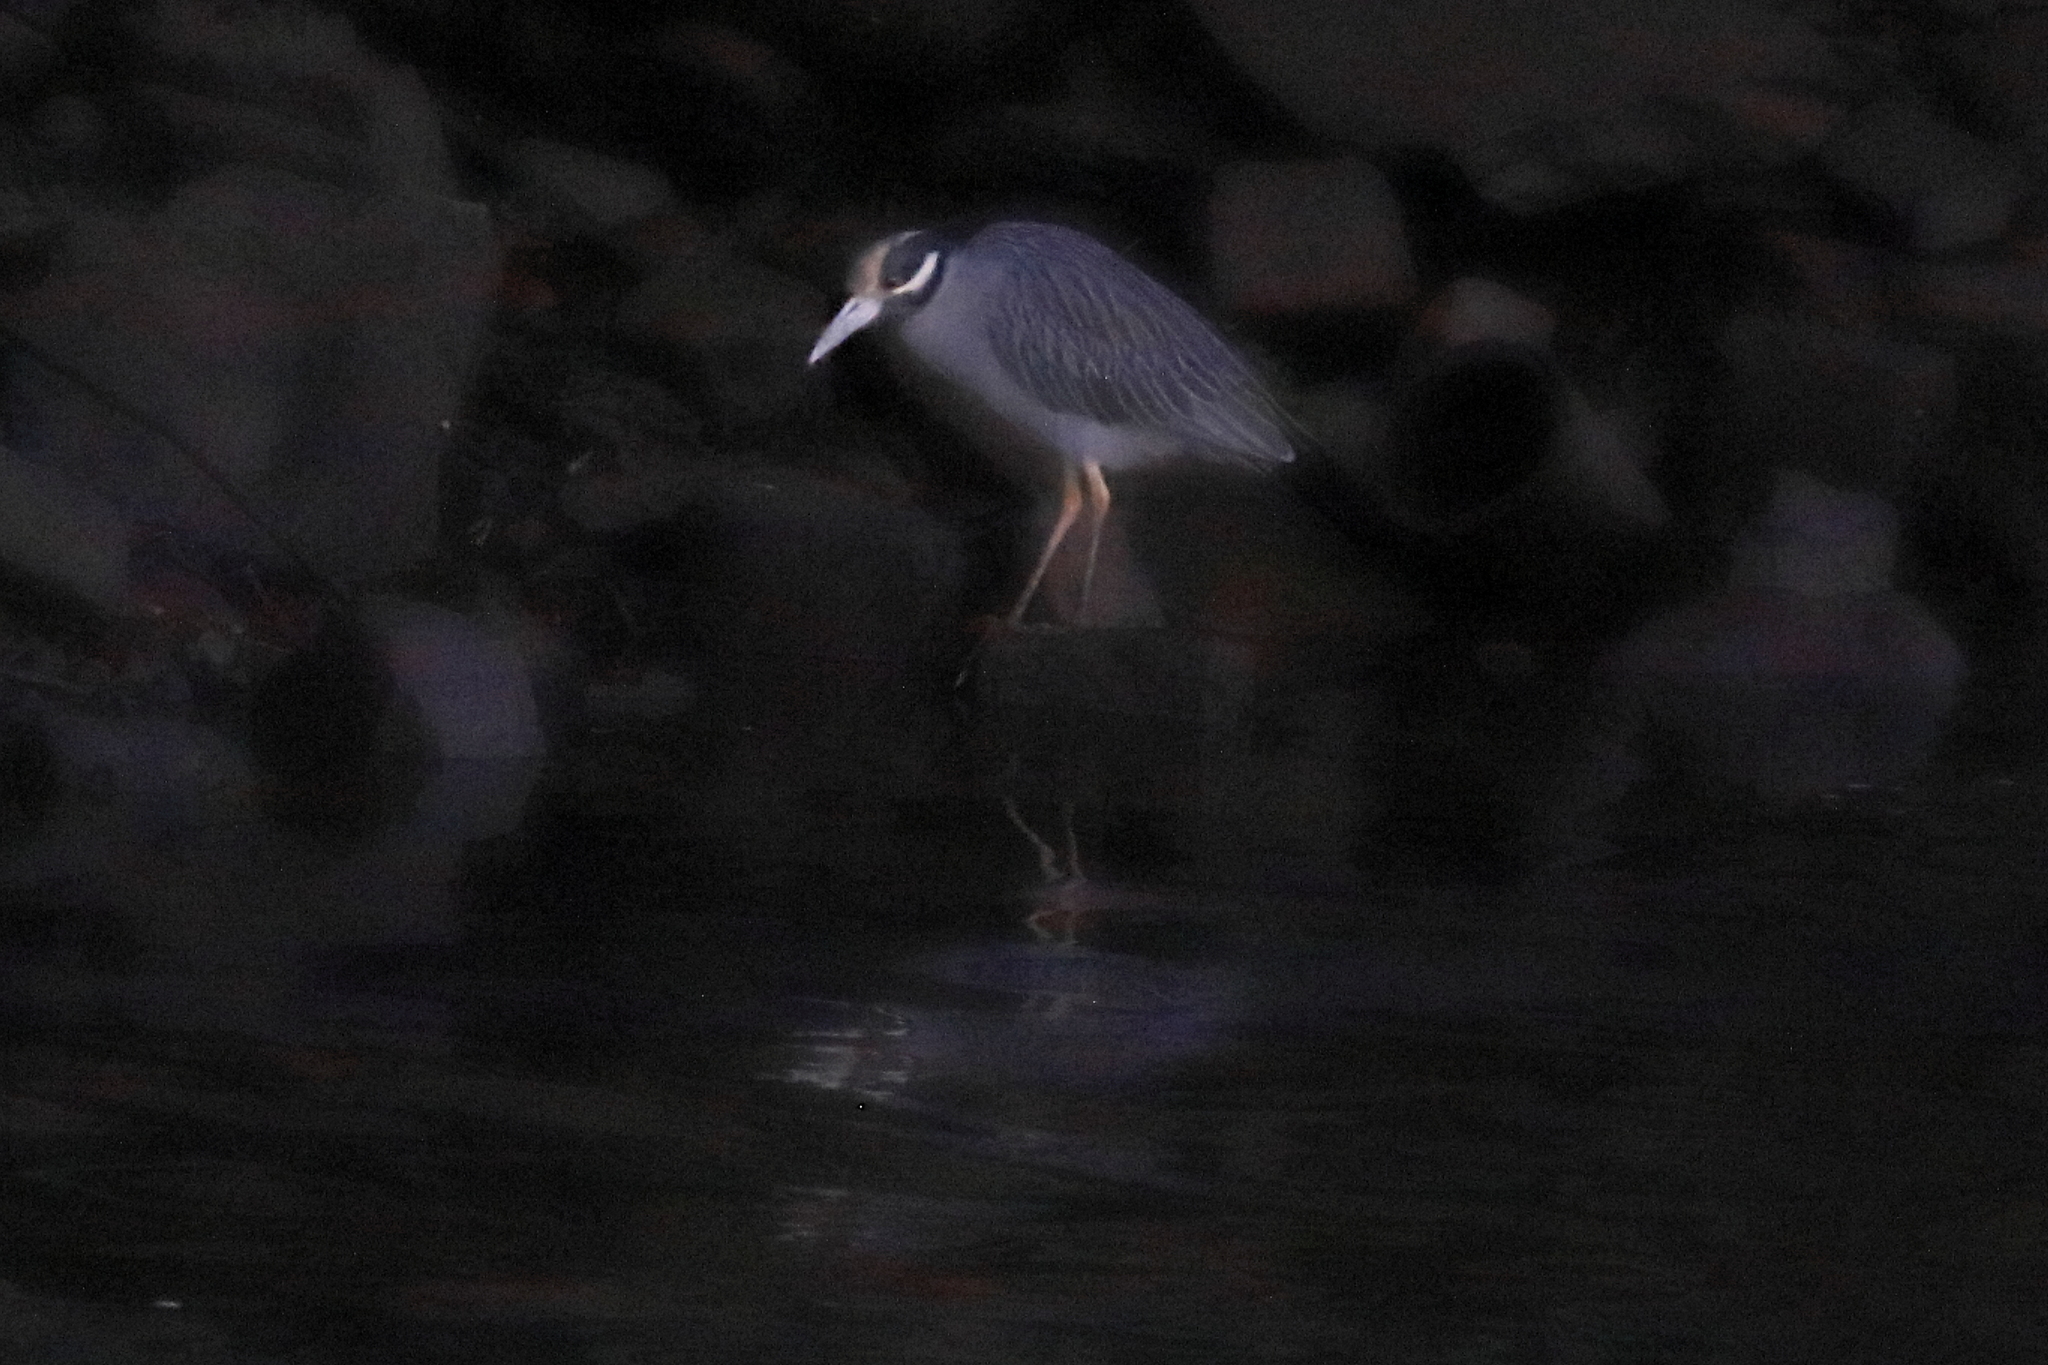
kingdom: Animalia
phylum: Chordata
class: Aves
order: Pelecaniformes
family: Ardeidae
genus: Nyctanassa
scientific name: Nyctanassa violacea
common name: Yellow-crowned night heron
